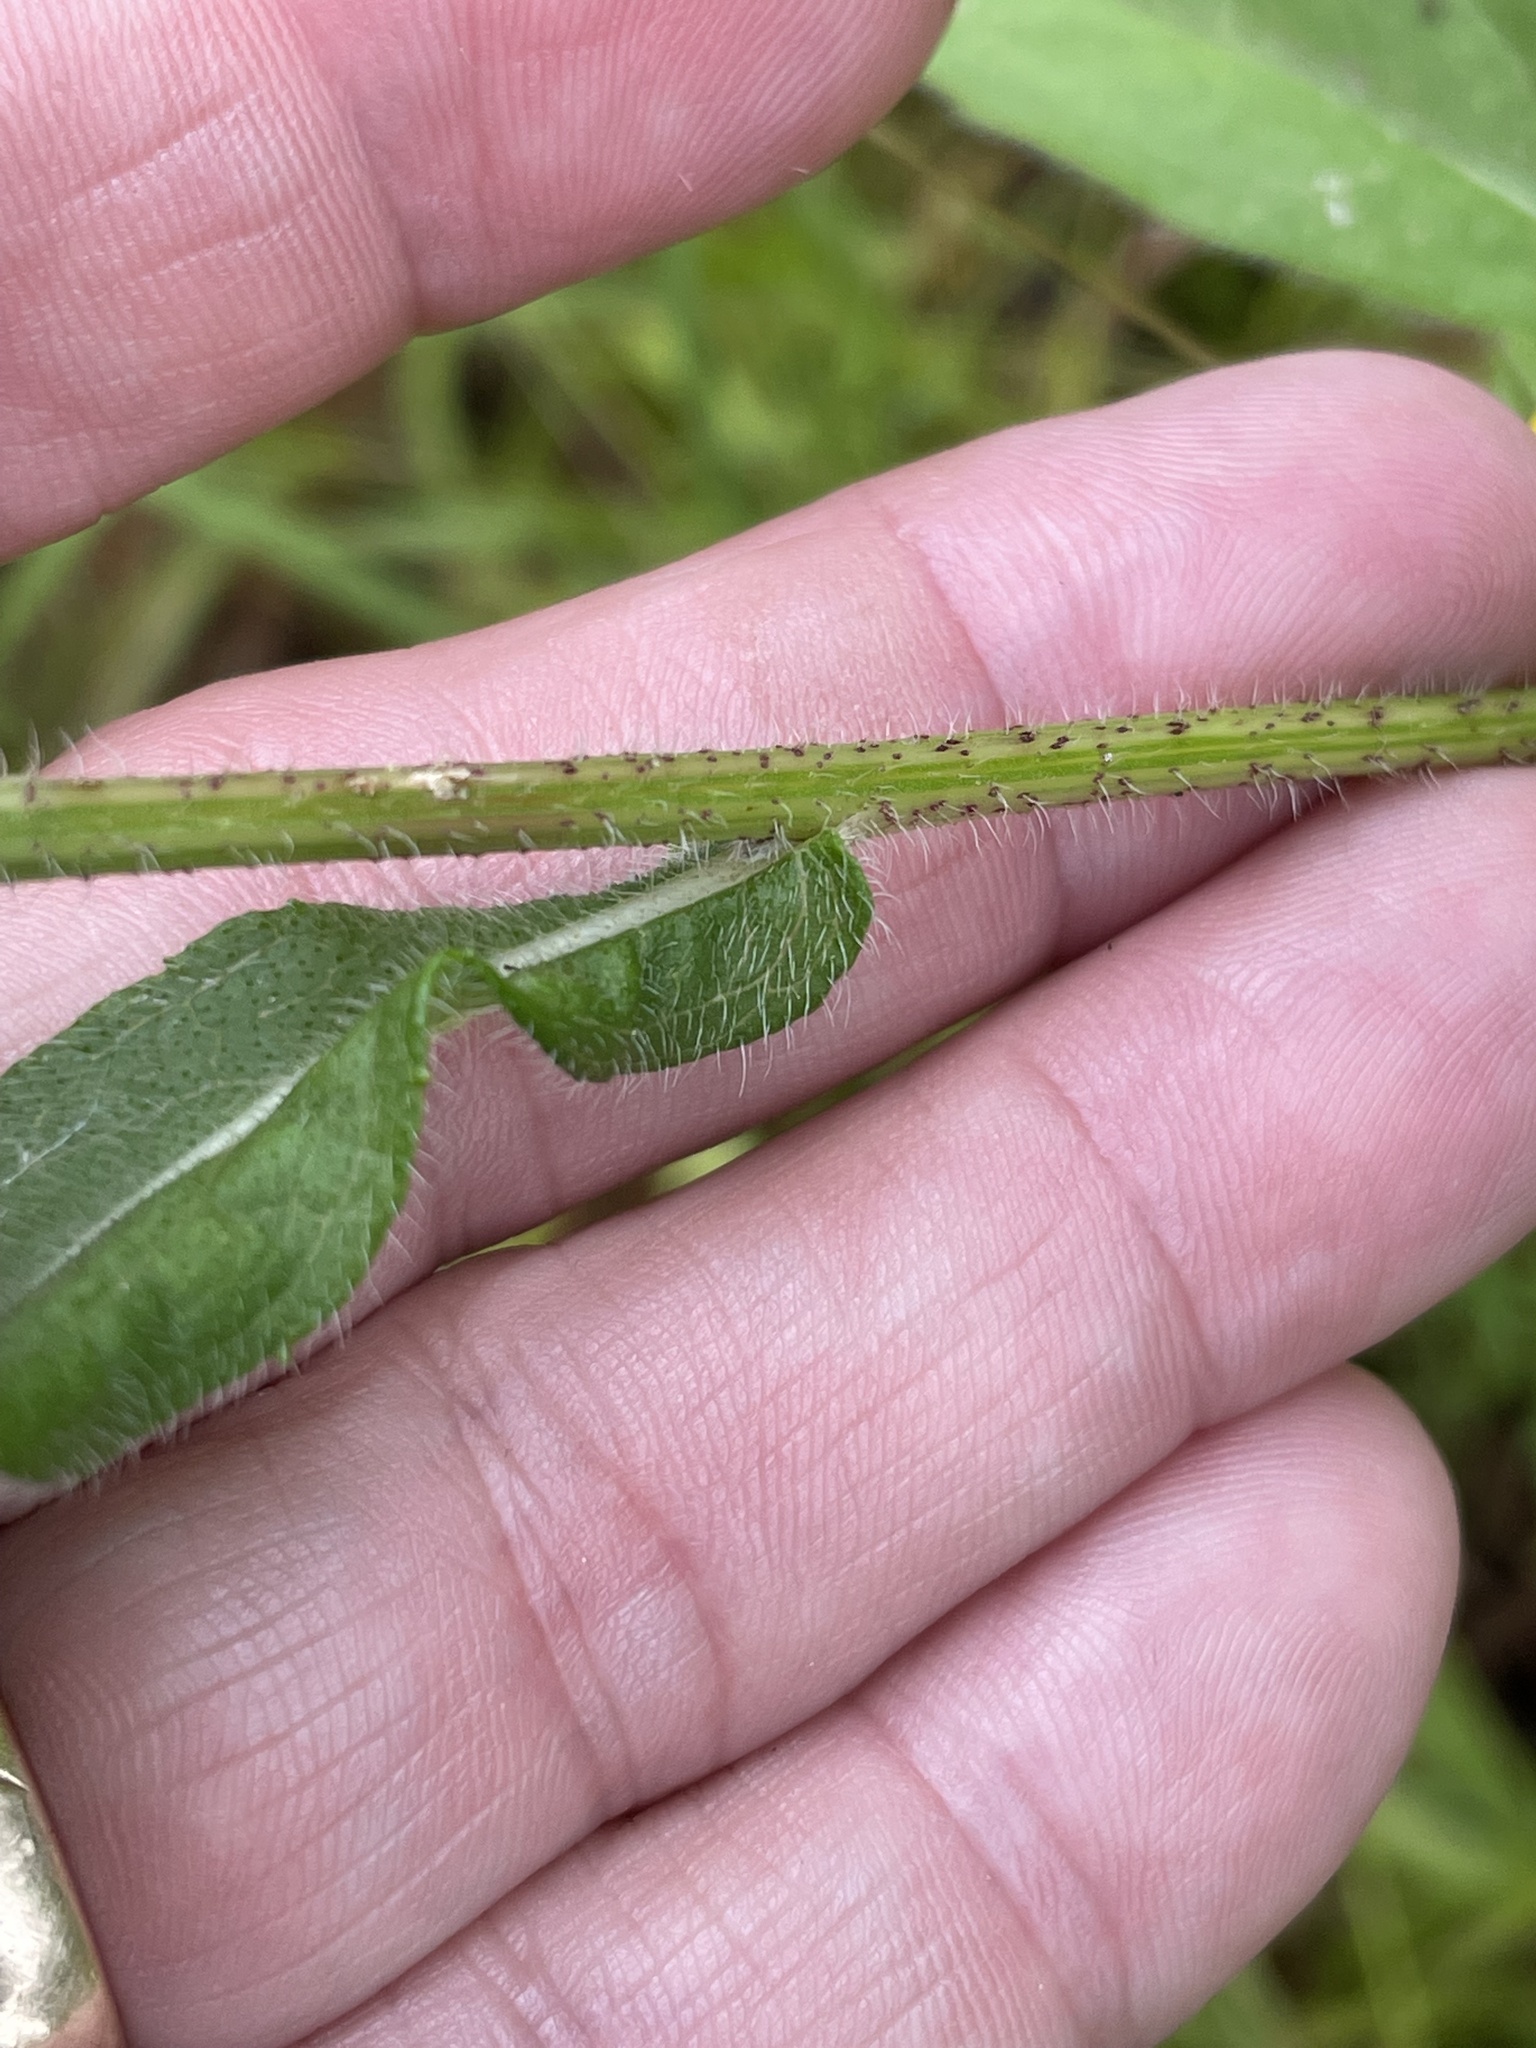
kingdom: Plantae
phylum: Tracheophyta
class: Magnoliopsida
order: Asterales
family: Asteraceae
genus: Rudbeckia
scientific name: Rudbeckia hirta
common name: Black-eyed-susan
